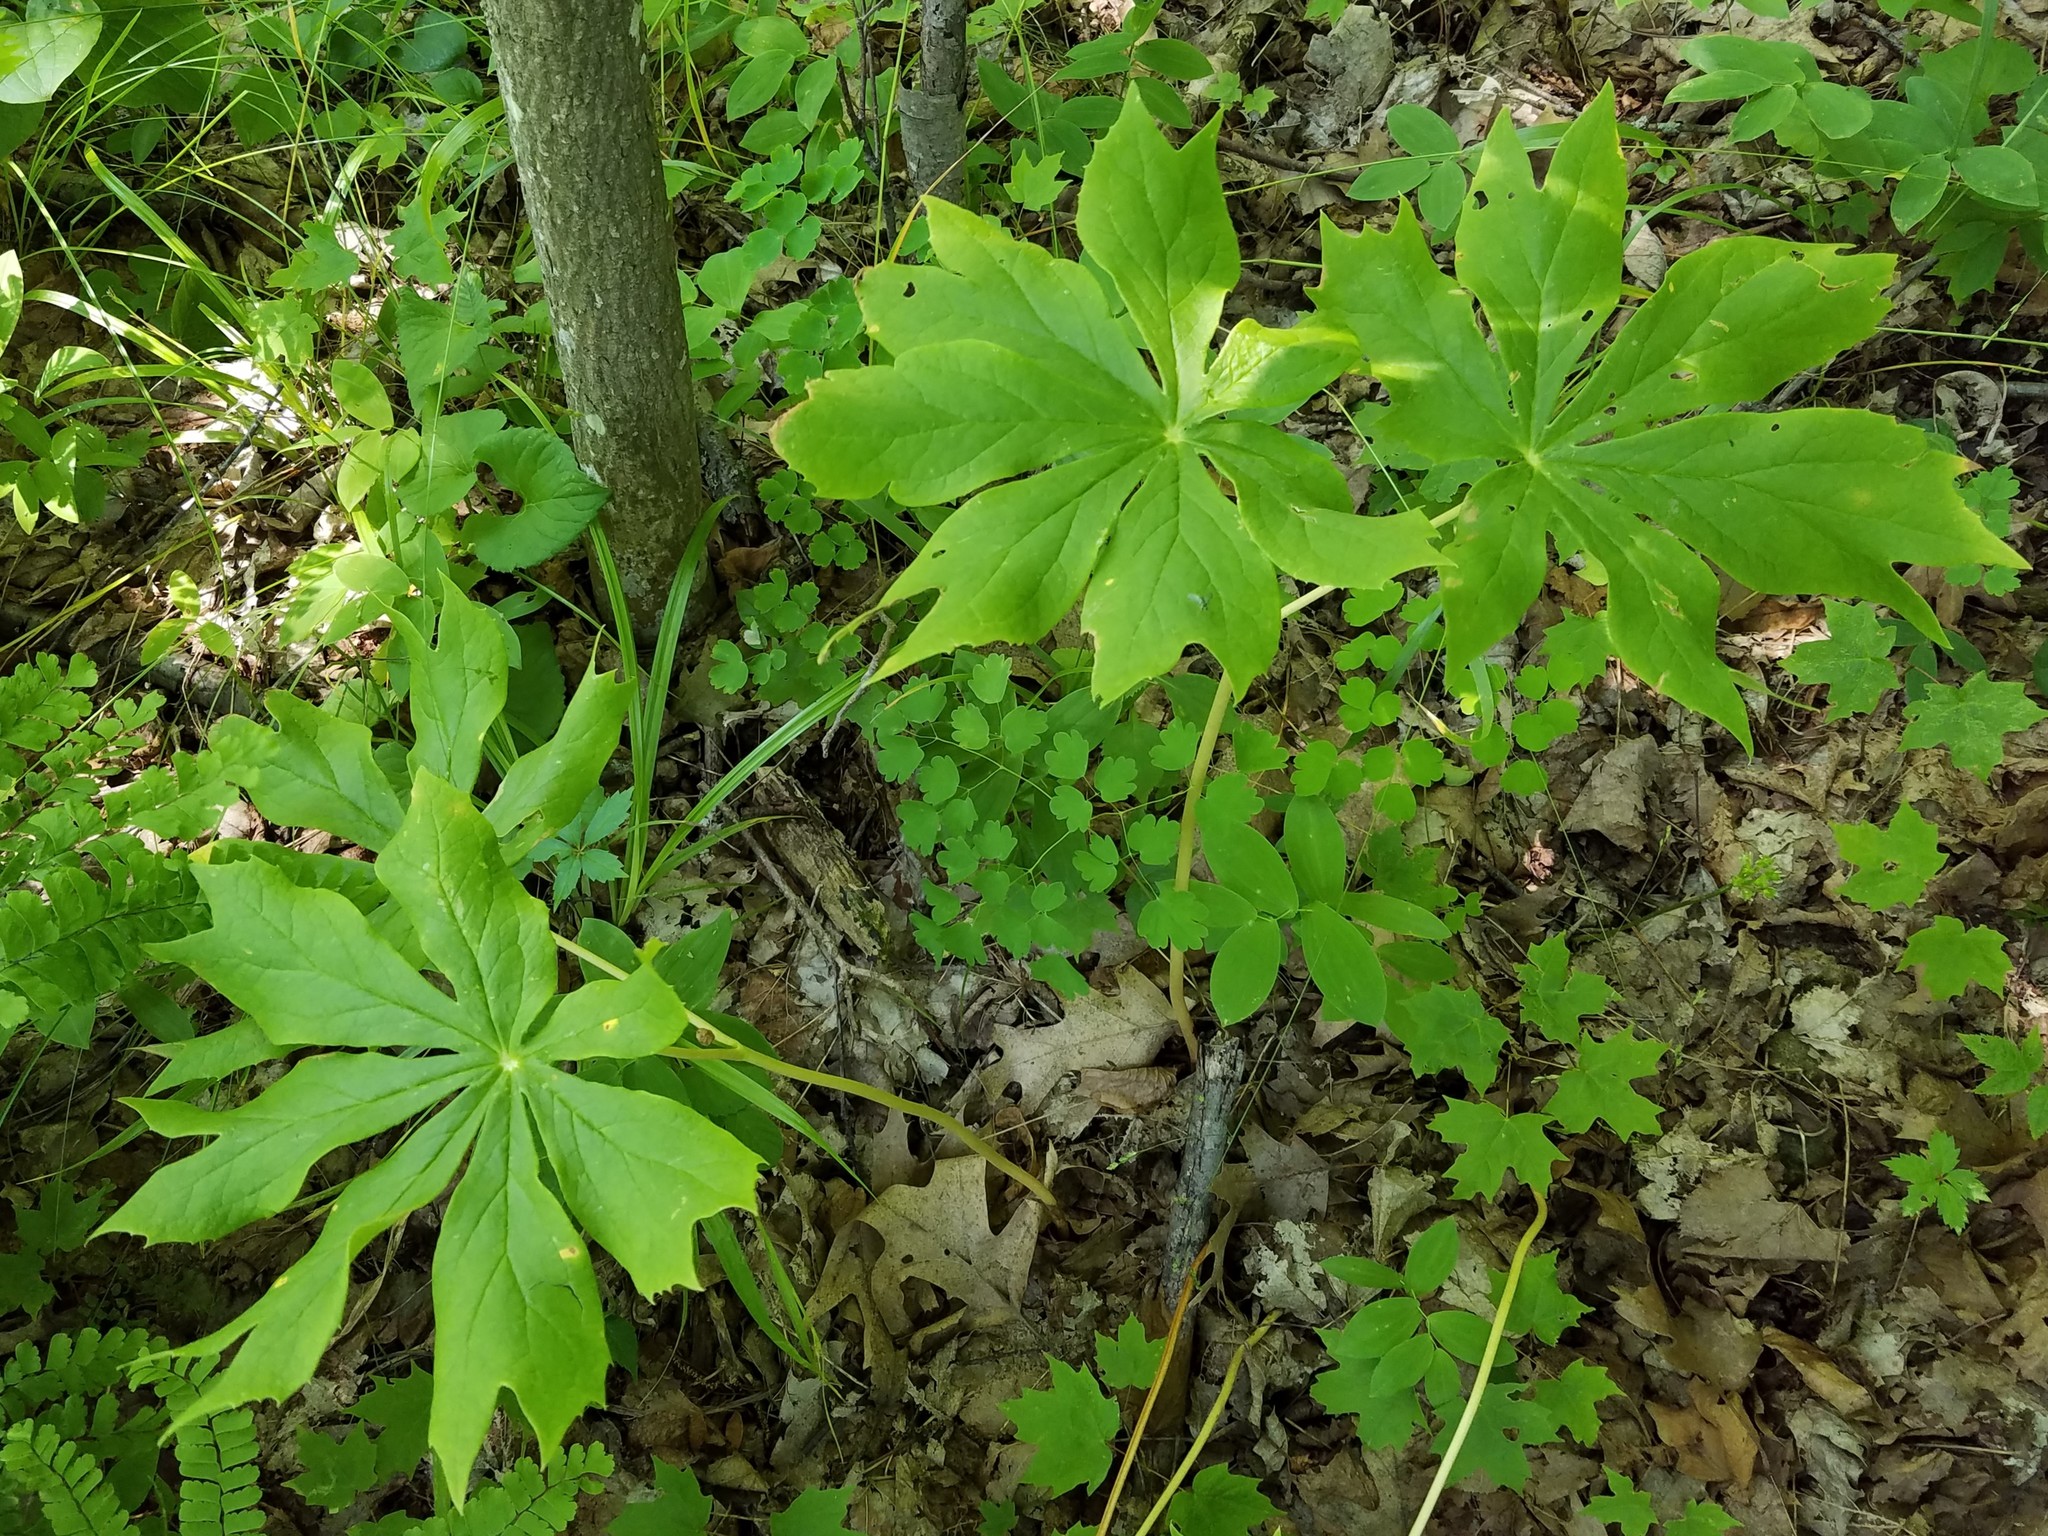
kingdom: Plantae
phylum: Tracheophyta
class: Magnoliopsida
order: Ranunculales
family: Berberidaceae
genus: Podophyllum
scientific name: Podophyllum peltatum
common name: Wild mandrake
